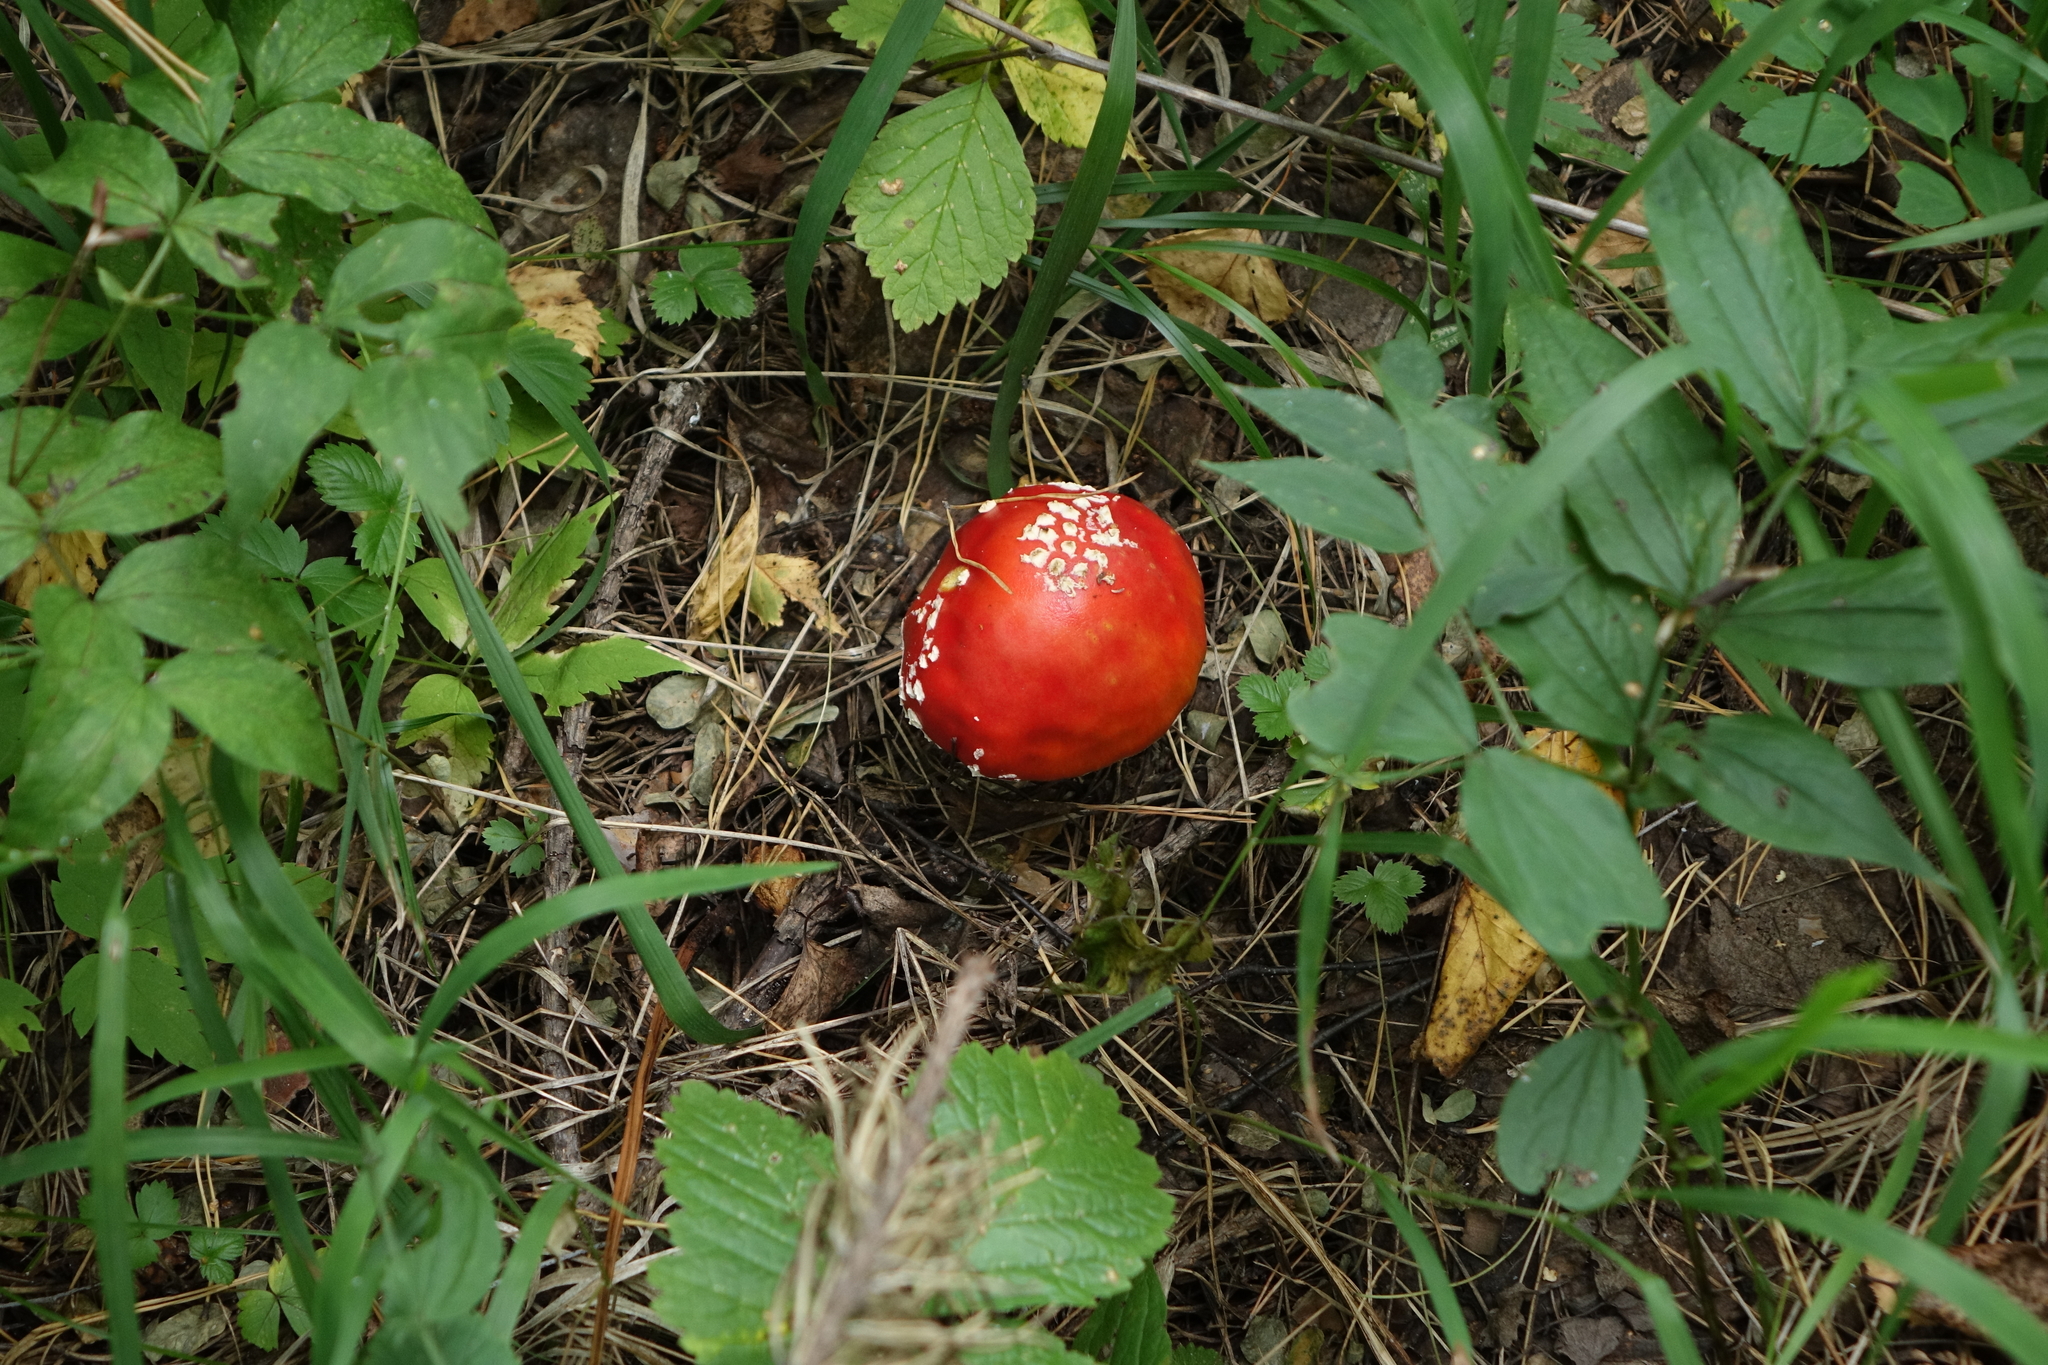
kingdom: Fungi
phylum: Basidiomycota
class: Agaricomycetes
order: Agaricales
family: Amanitaceae
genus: Amanita
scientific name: Amanita muscaria
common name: Fly agaric
